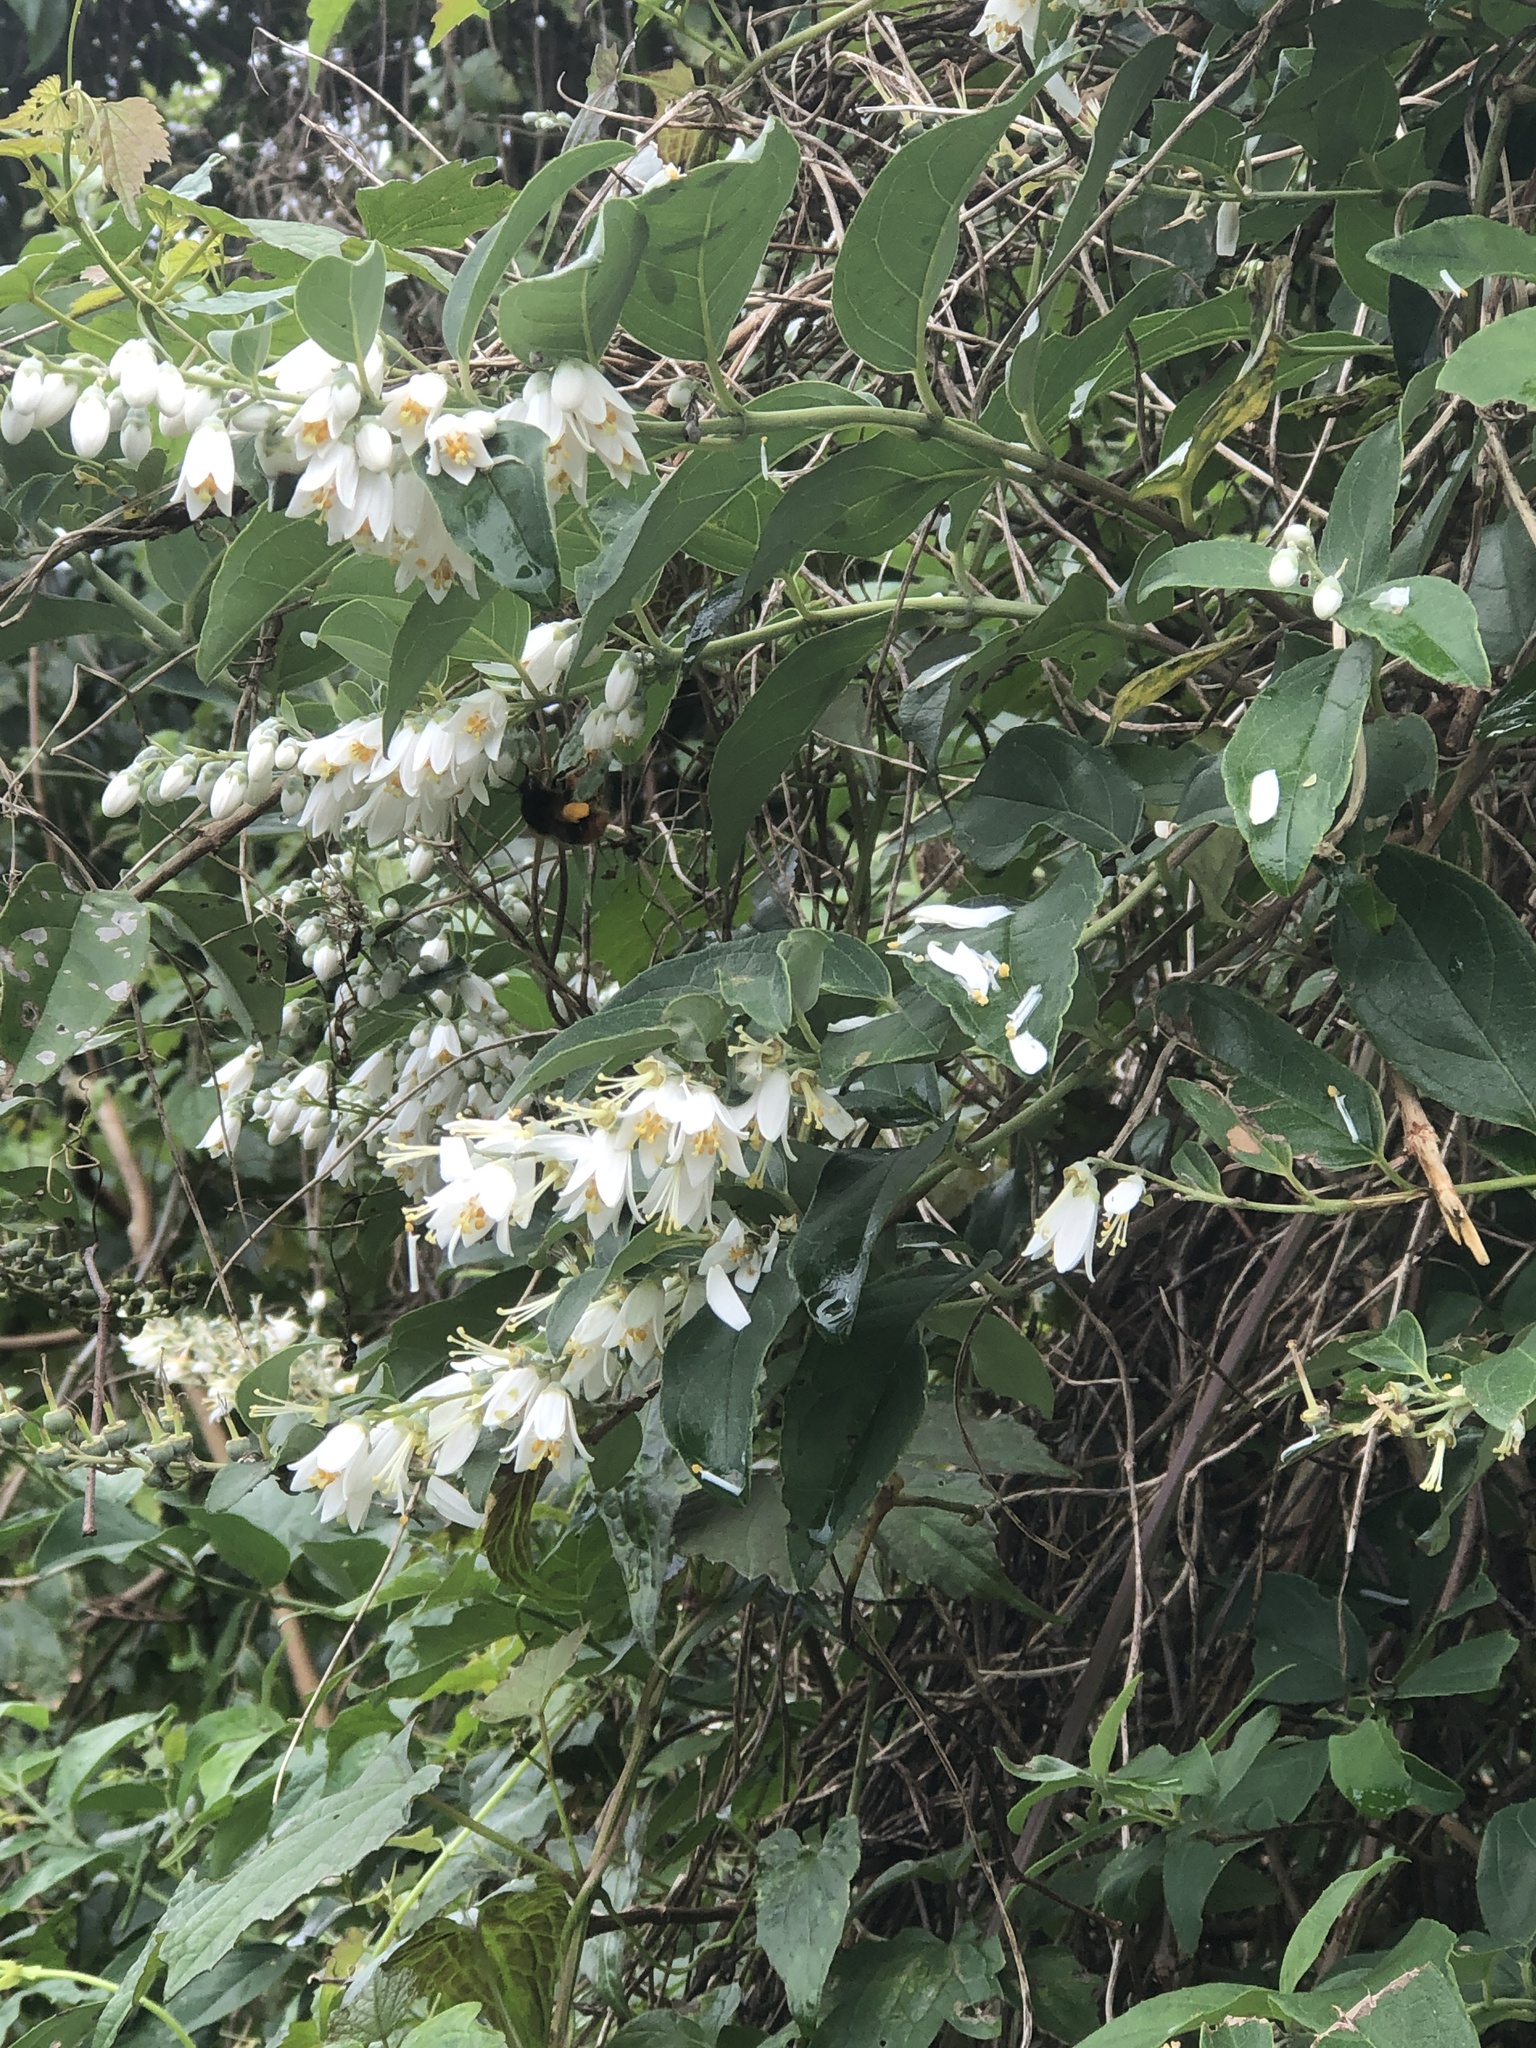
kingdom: Plantae
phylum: Tracheophyta
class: Magnoliopsida
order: Cornales
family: Hydrangeaceae
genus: Deutzia
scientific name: Deutzia pulchra
